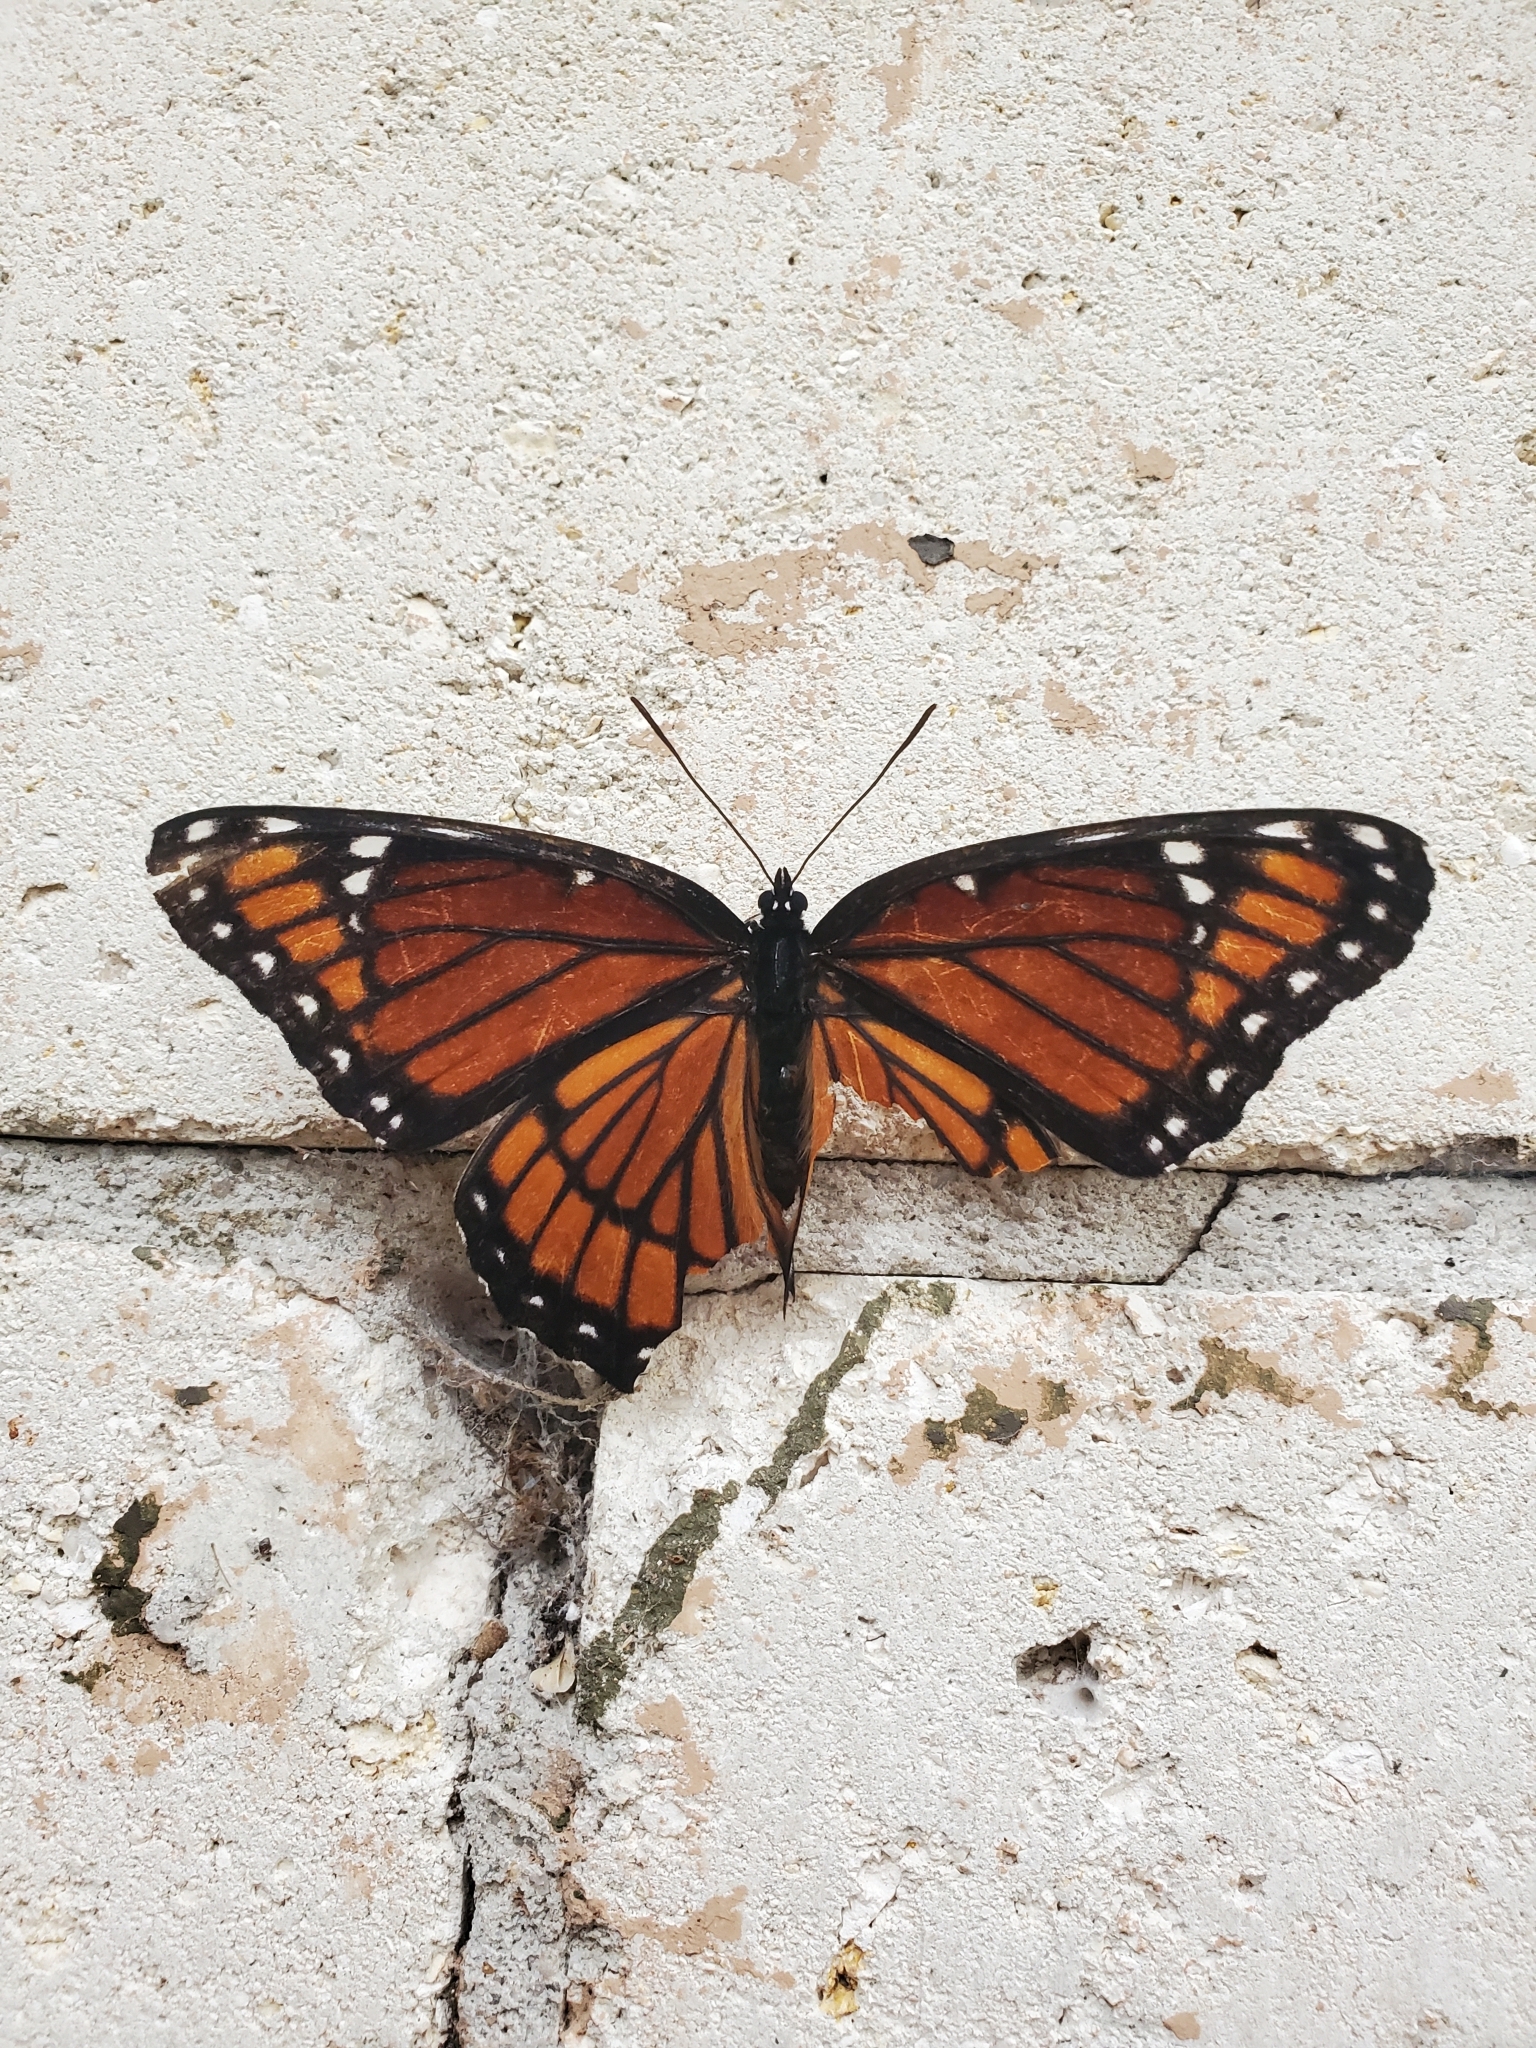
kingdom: Animalia
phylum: Arthropoda
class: Insecta
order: Lepidoptera
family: Nymphalidae
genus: Limenitis
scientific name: Limenitis archippus
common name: Viceroy
